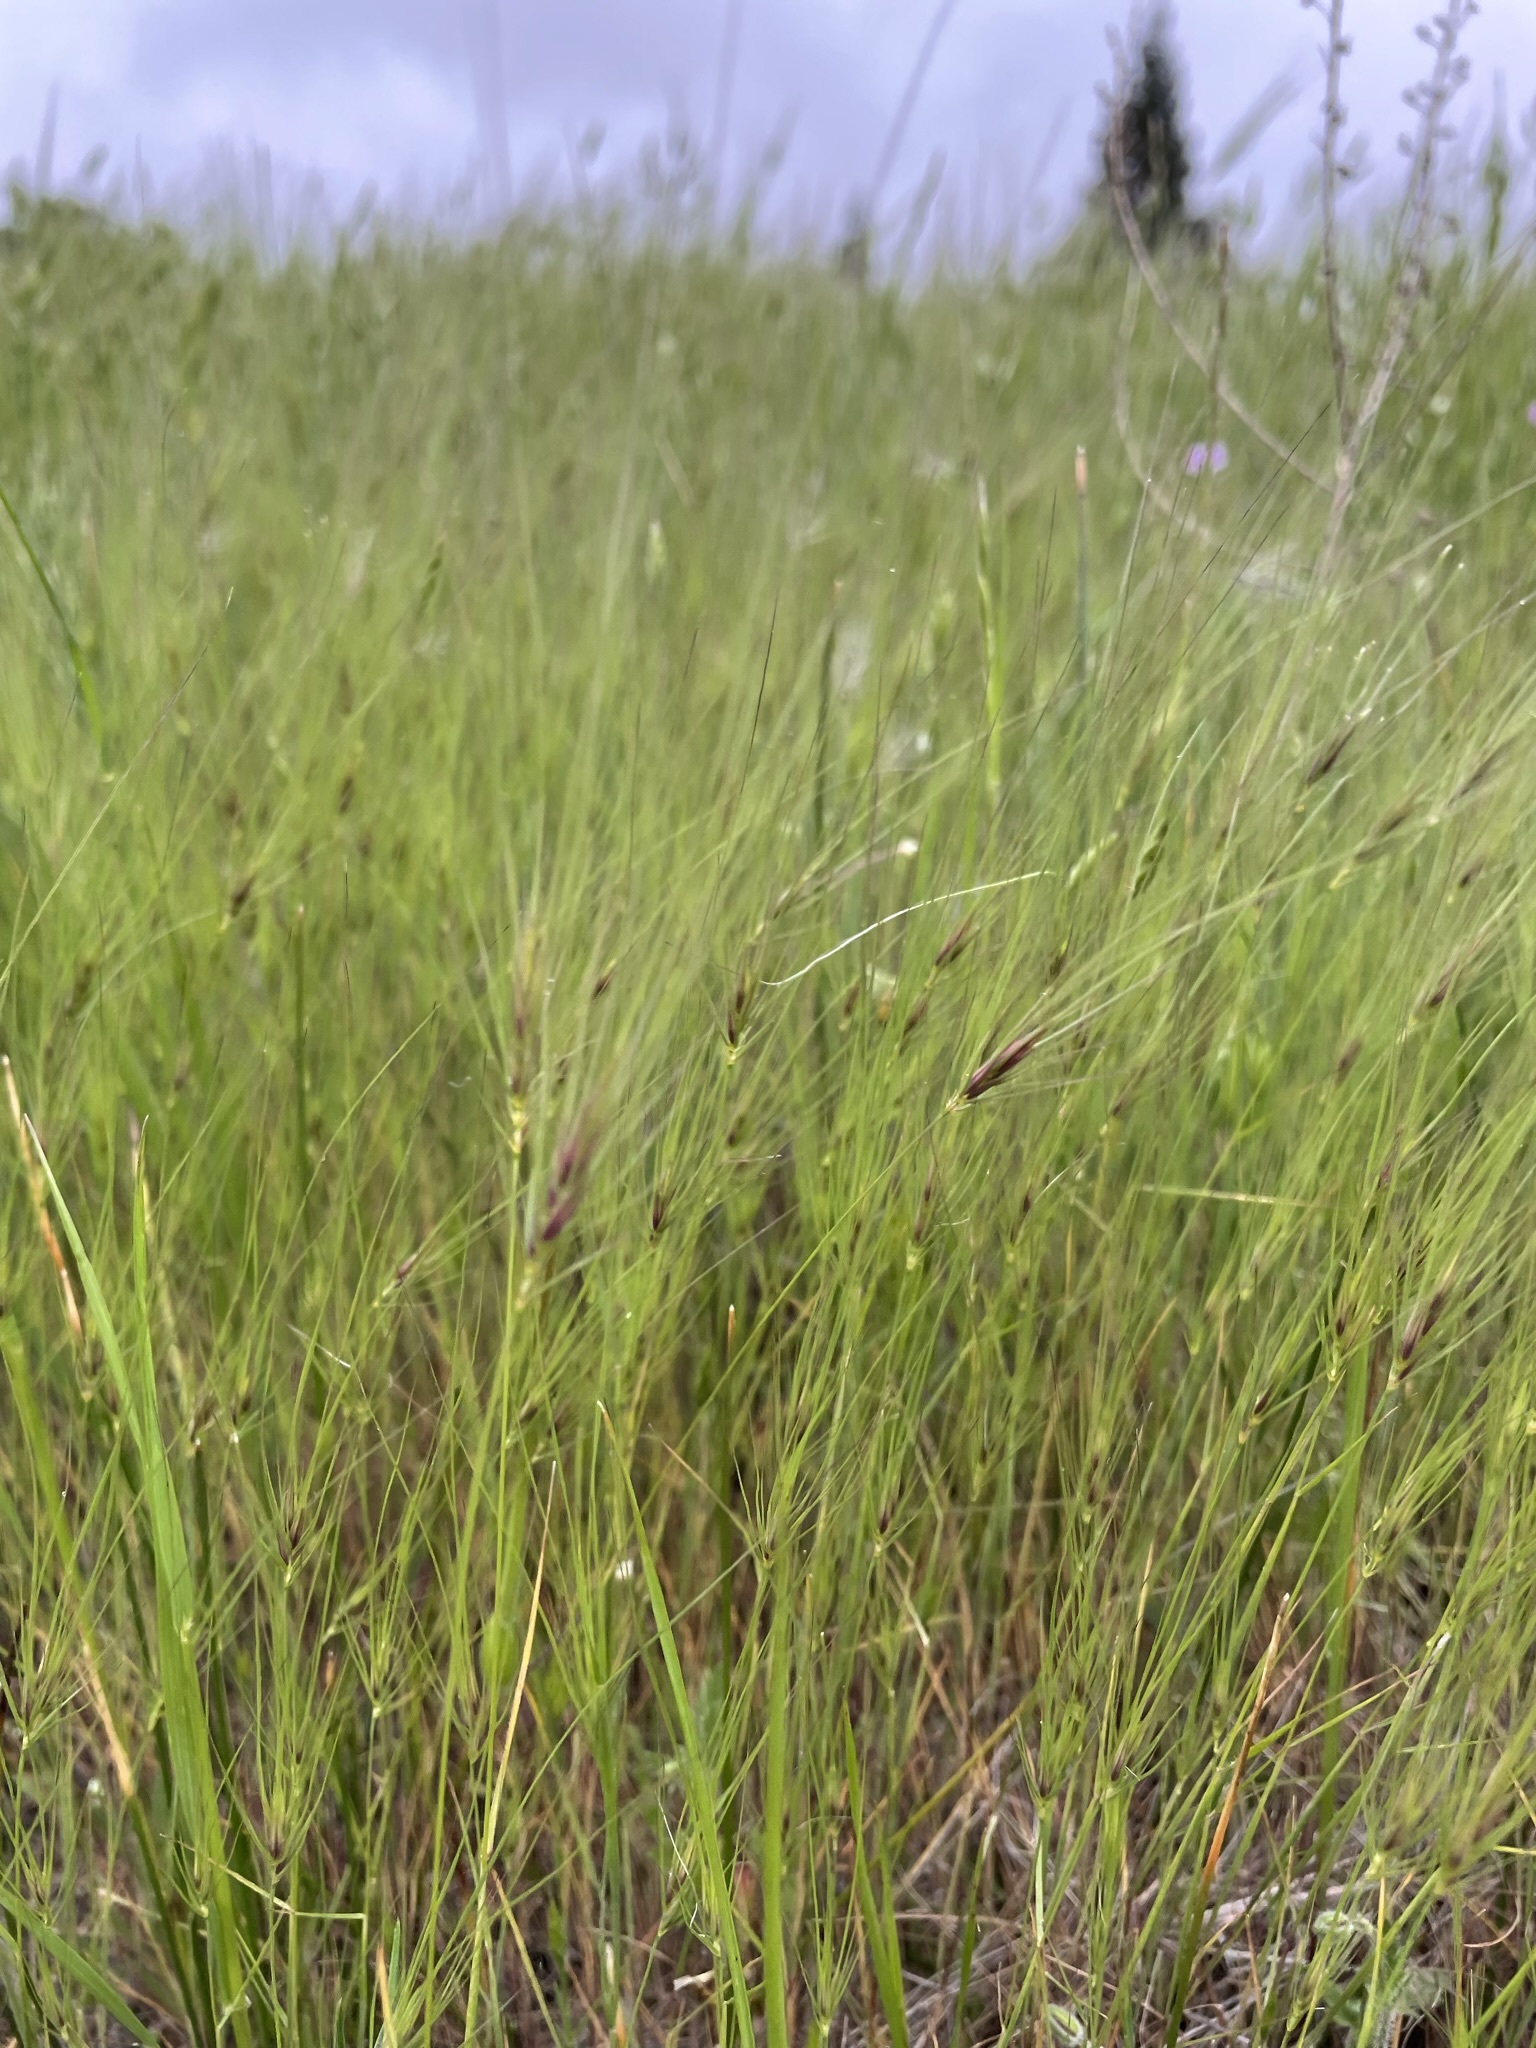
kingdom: Plantae
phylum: Tracheophyta
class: Liliopsida
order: Poales
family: Poaceae
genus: Taeniatherum
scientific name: Taeniatherum caput-medusae
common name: Medusahead
